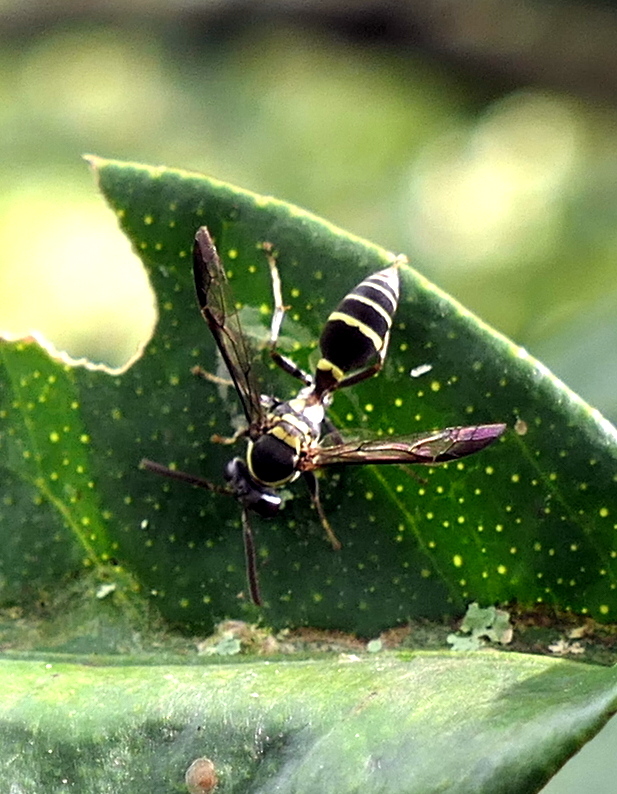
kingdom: Animalia
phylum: Arthropoda
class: Insecta
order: Hymenoptera
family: Eumenidae
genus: Polybia
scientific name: Polybia occidentalis
